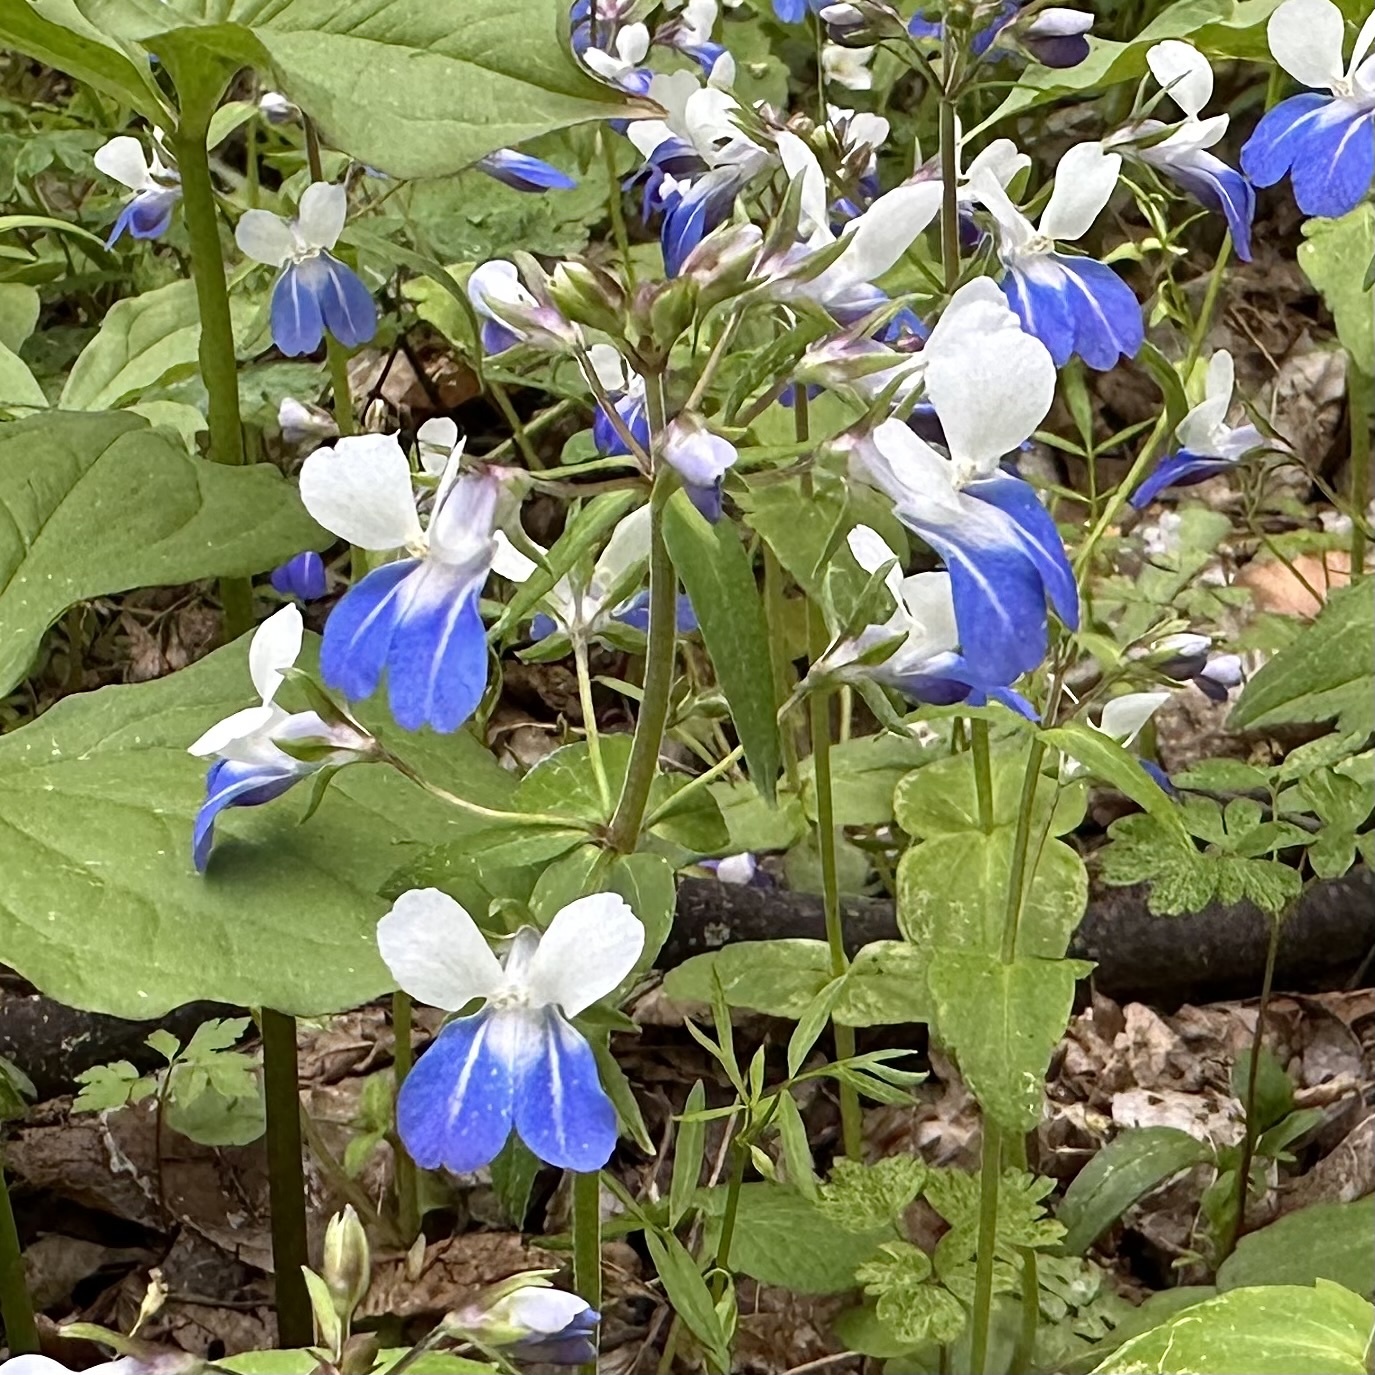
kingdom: Plantae
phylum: Tracheophyta
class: Magnoliopsida
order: Lamiales
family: Plantaginaceae
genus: Collinsia
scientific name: Collinsia verna
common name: Broad-leaved collinsia
